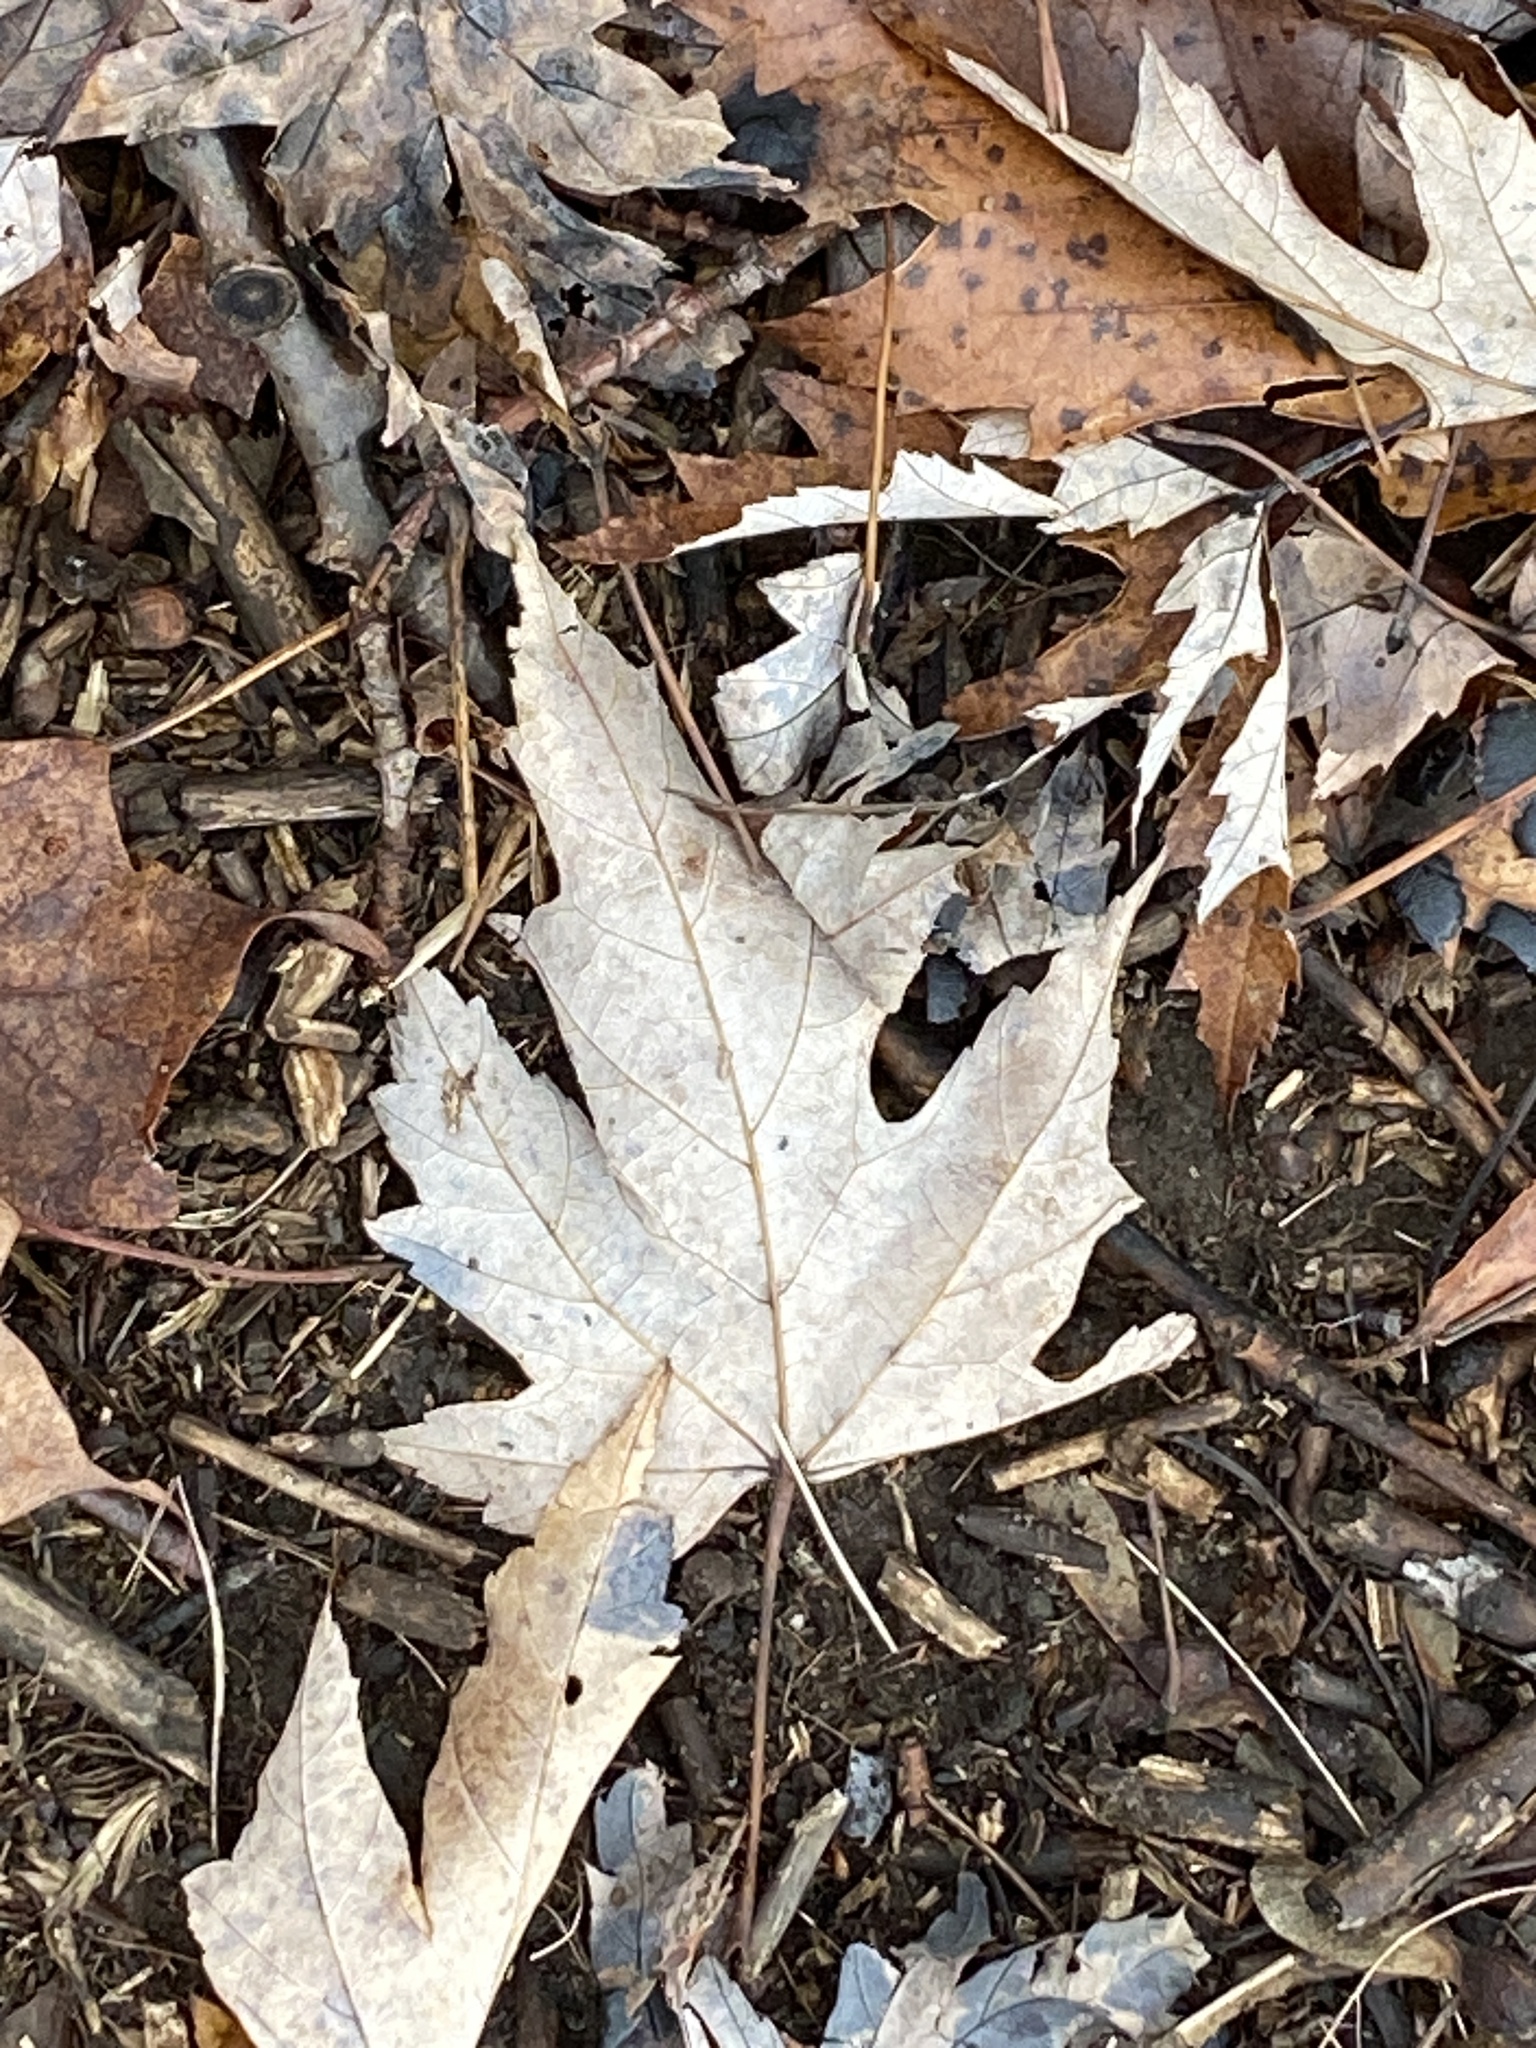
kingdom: Plantae
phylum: Tracheophyta
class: Magnoliopsida
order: Sapindales
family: Sapindaceae
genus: Acer
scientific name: Acer saccharinum
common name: Silver maple
